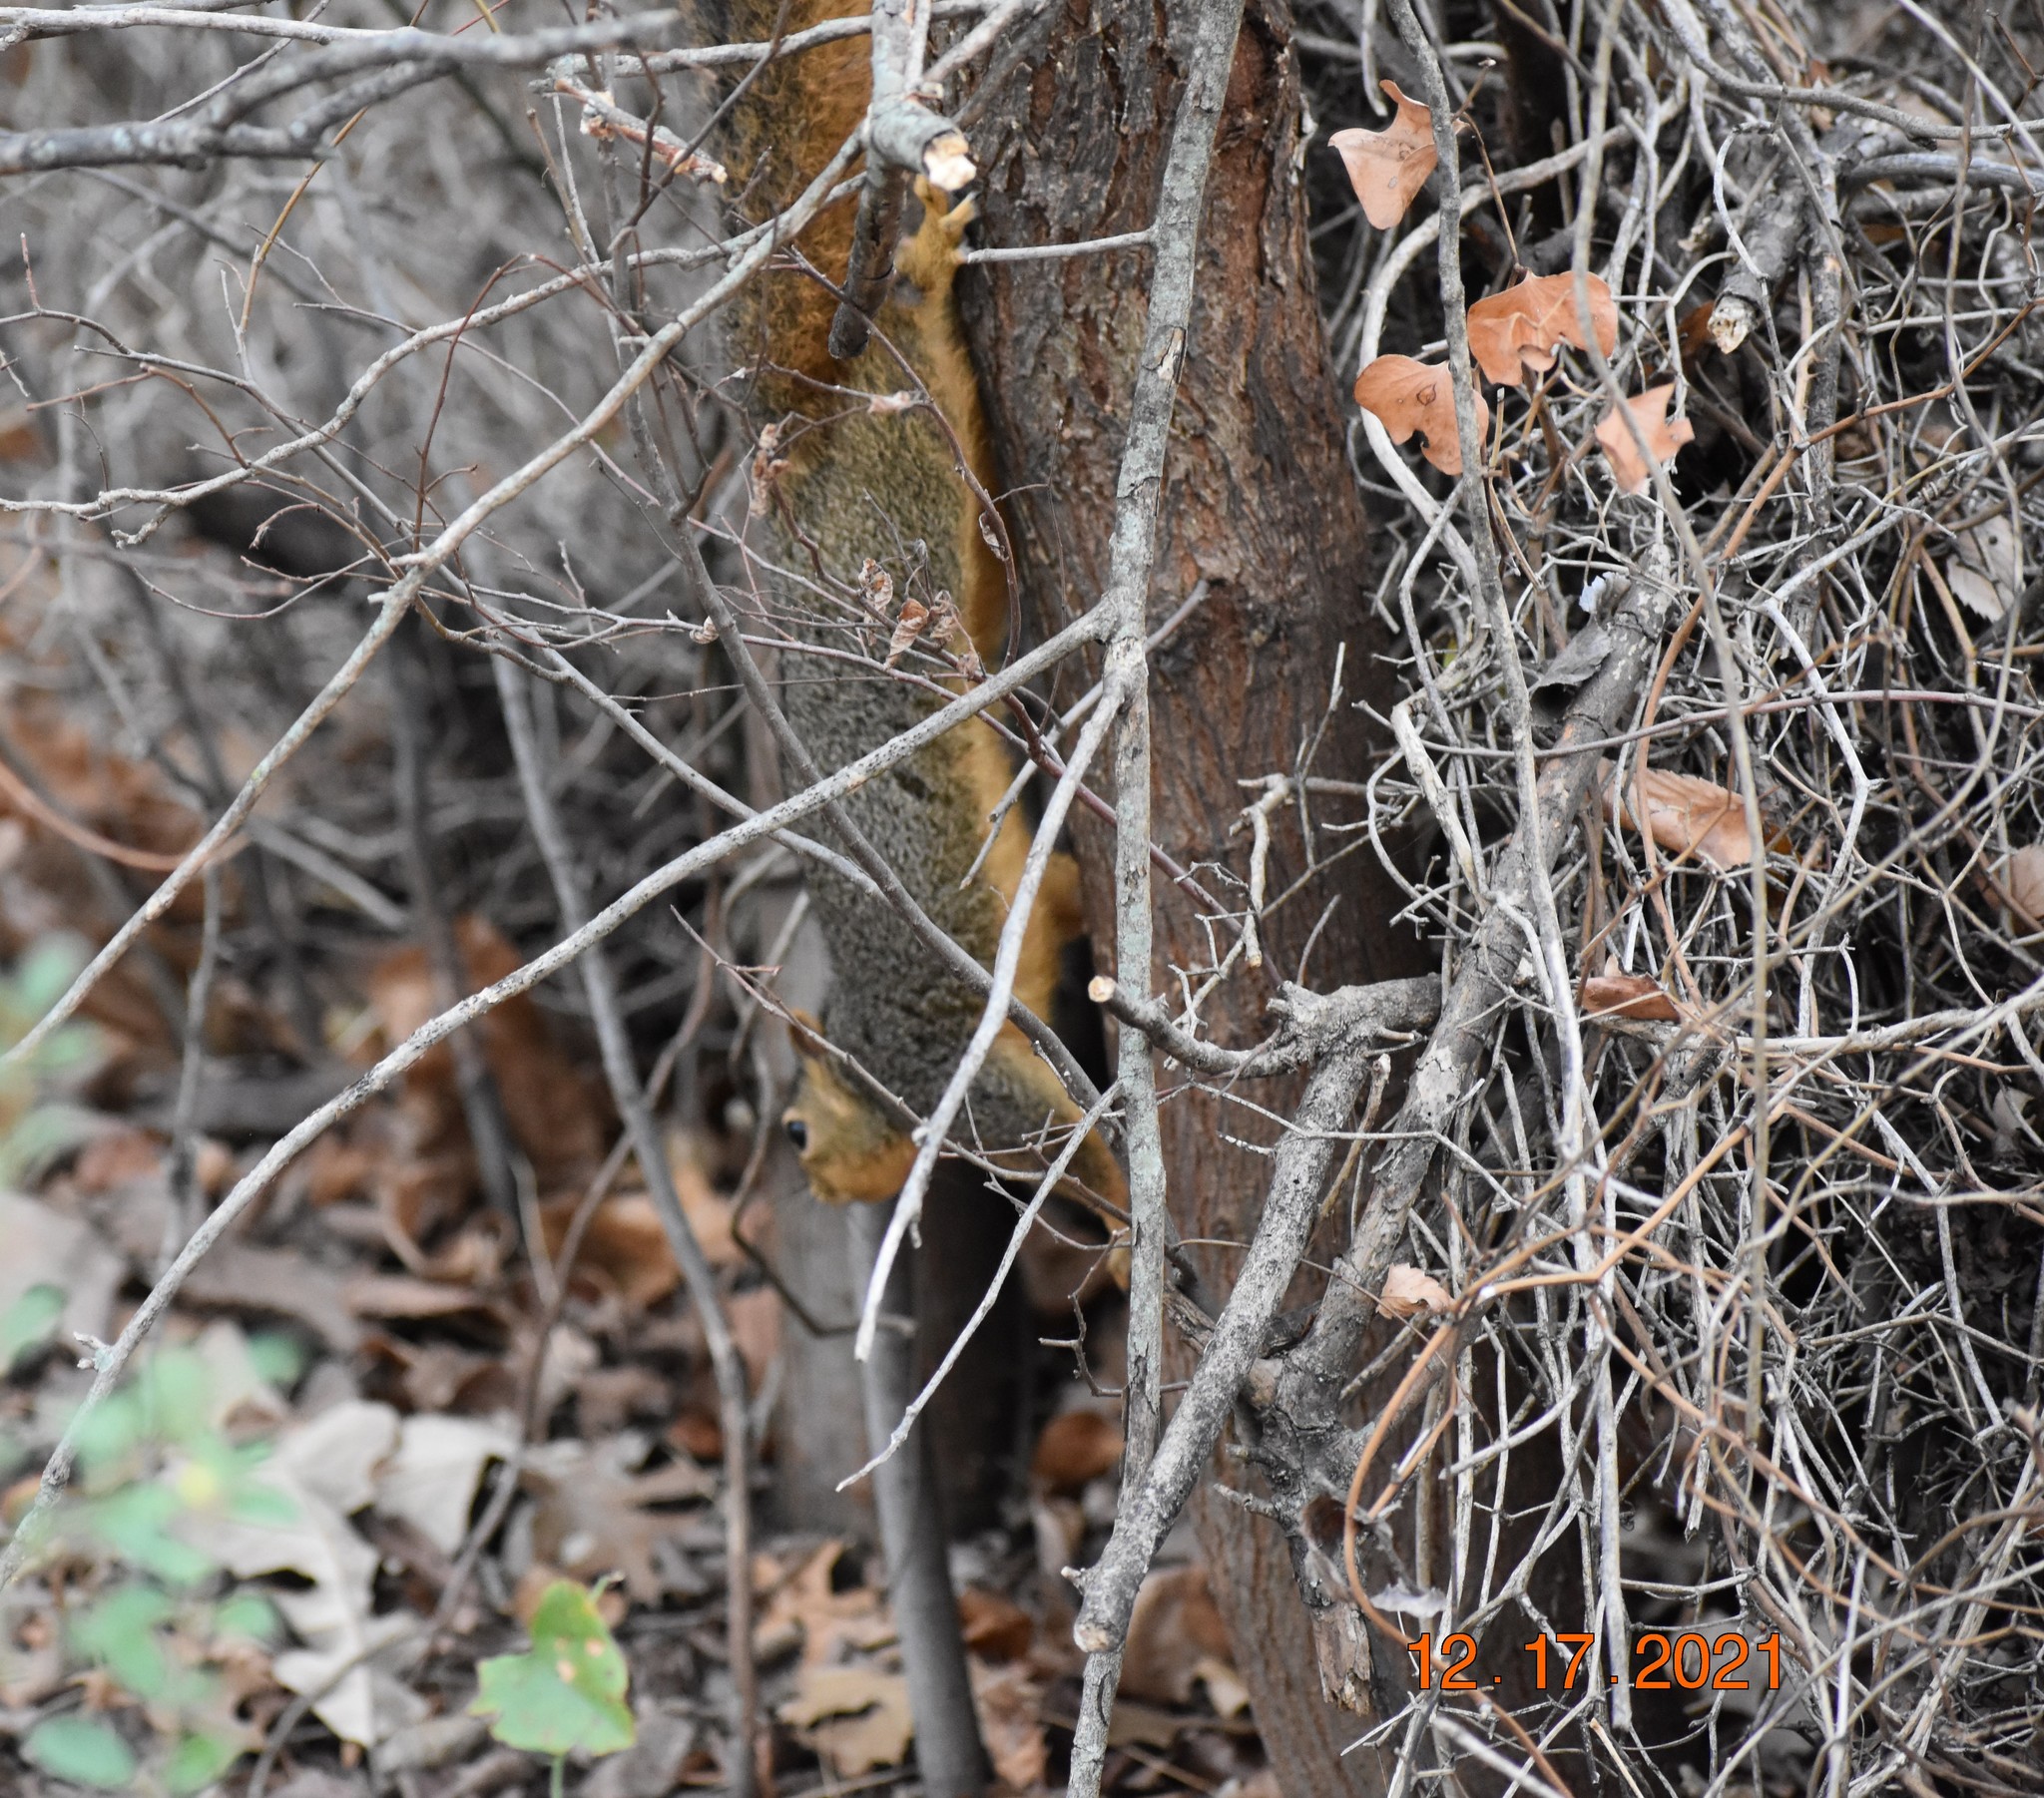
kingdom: Animalia
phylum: Chordata
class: Mammalia
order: Rodentia
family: Sciuridae
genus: Sciurus
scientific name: Sciurus niger
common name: Fox squirrel
